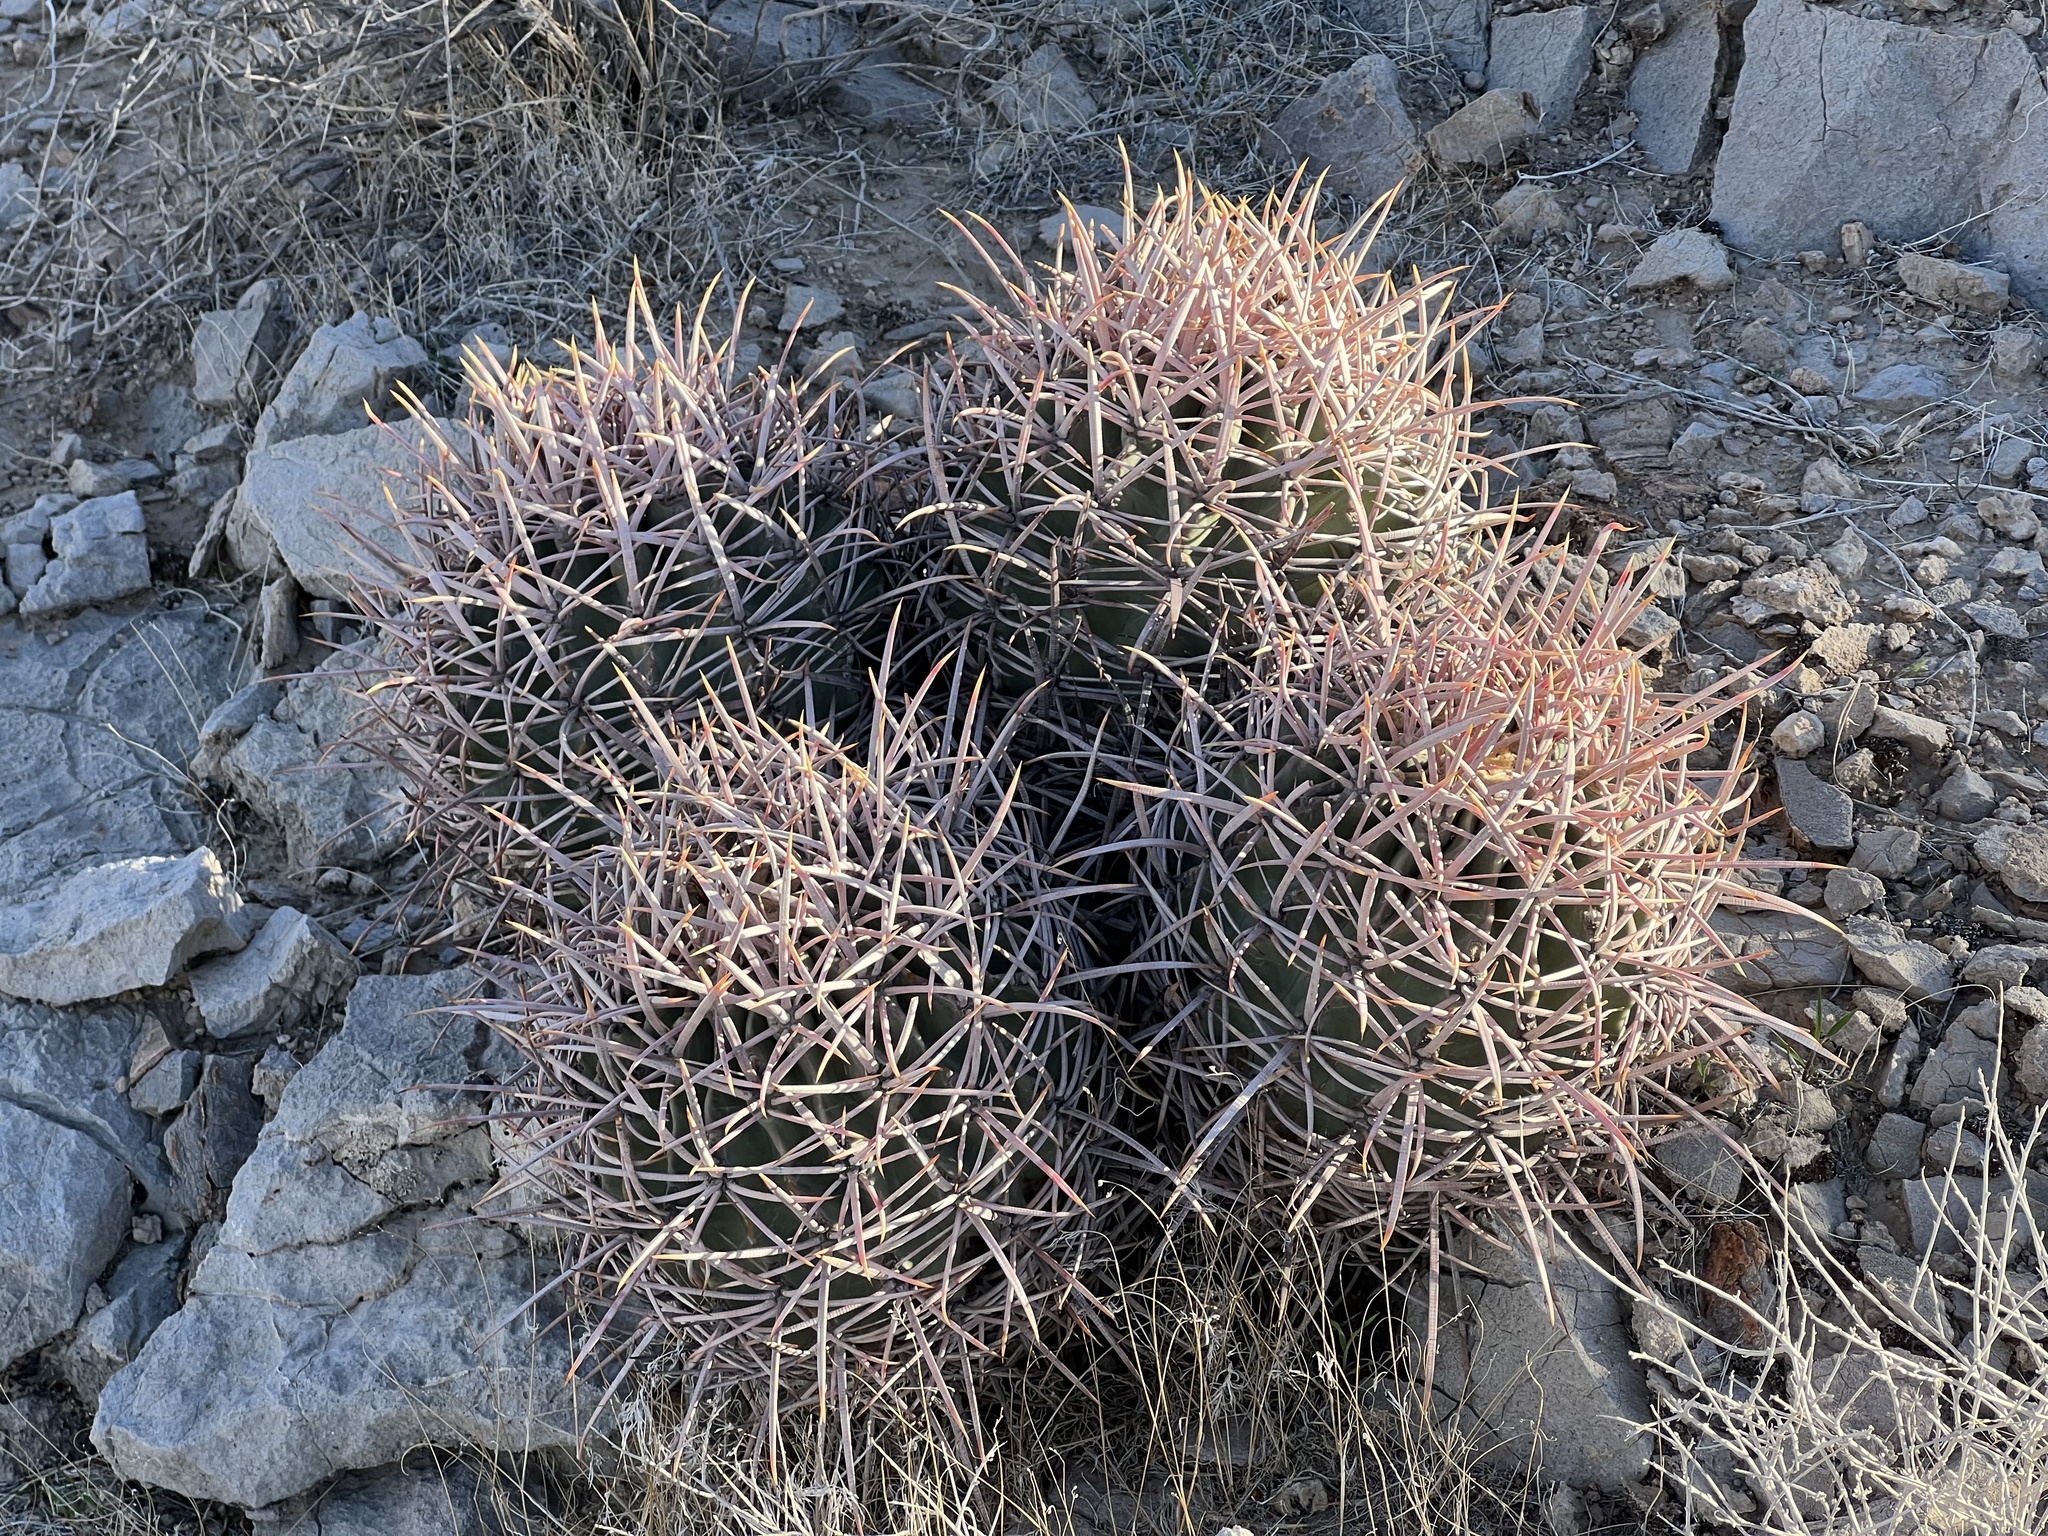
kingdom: Plantae
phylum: Tracheophyta
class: Magnoliopsida
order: Caryophyllales
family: Cactaceae
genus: Echinocactus
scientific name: Echinocactus polycephalus
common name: Cottontop cactus
